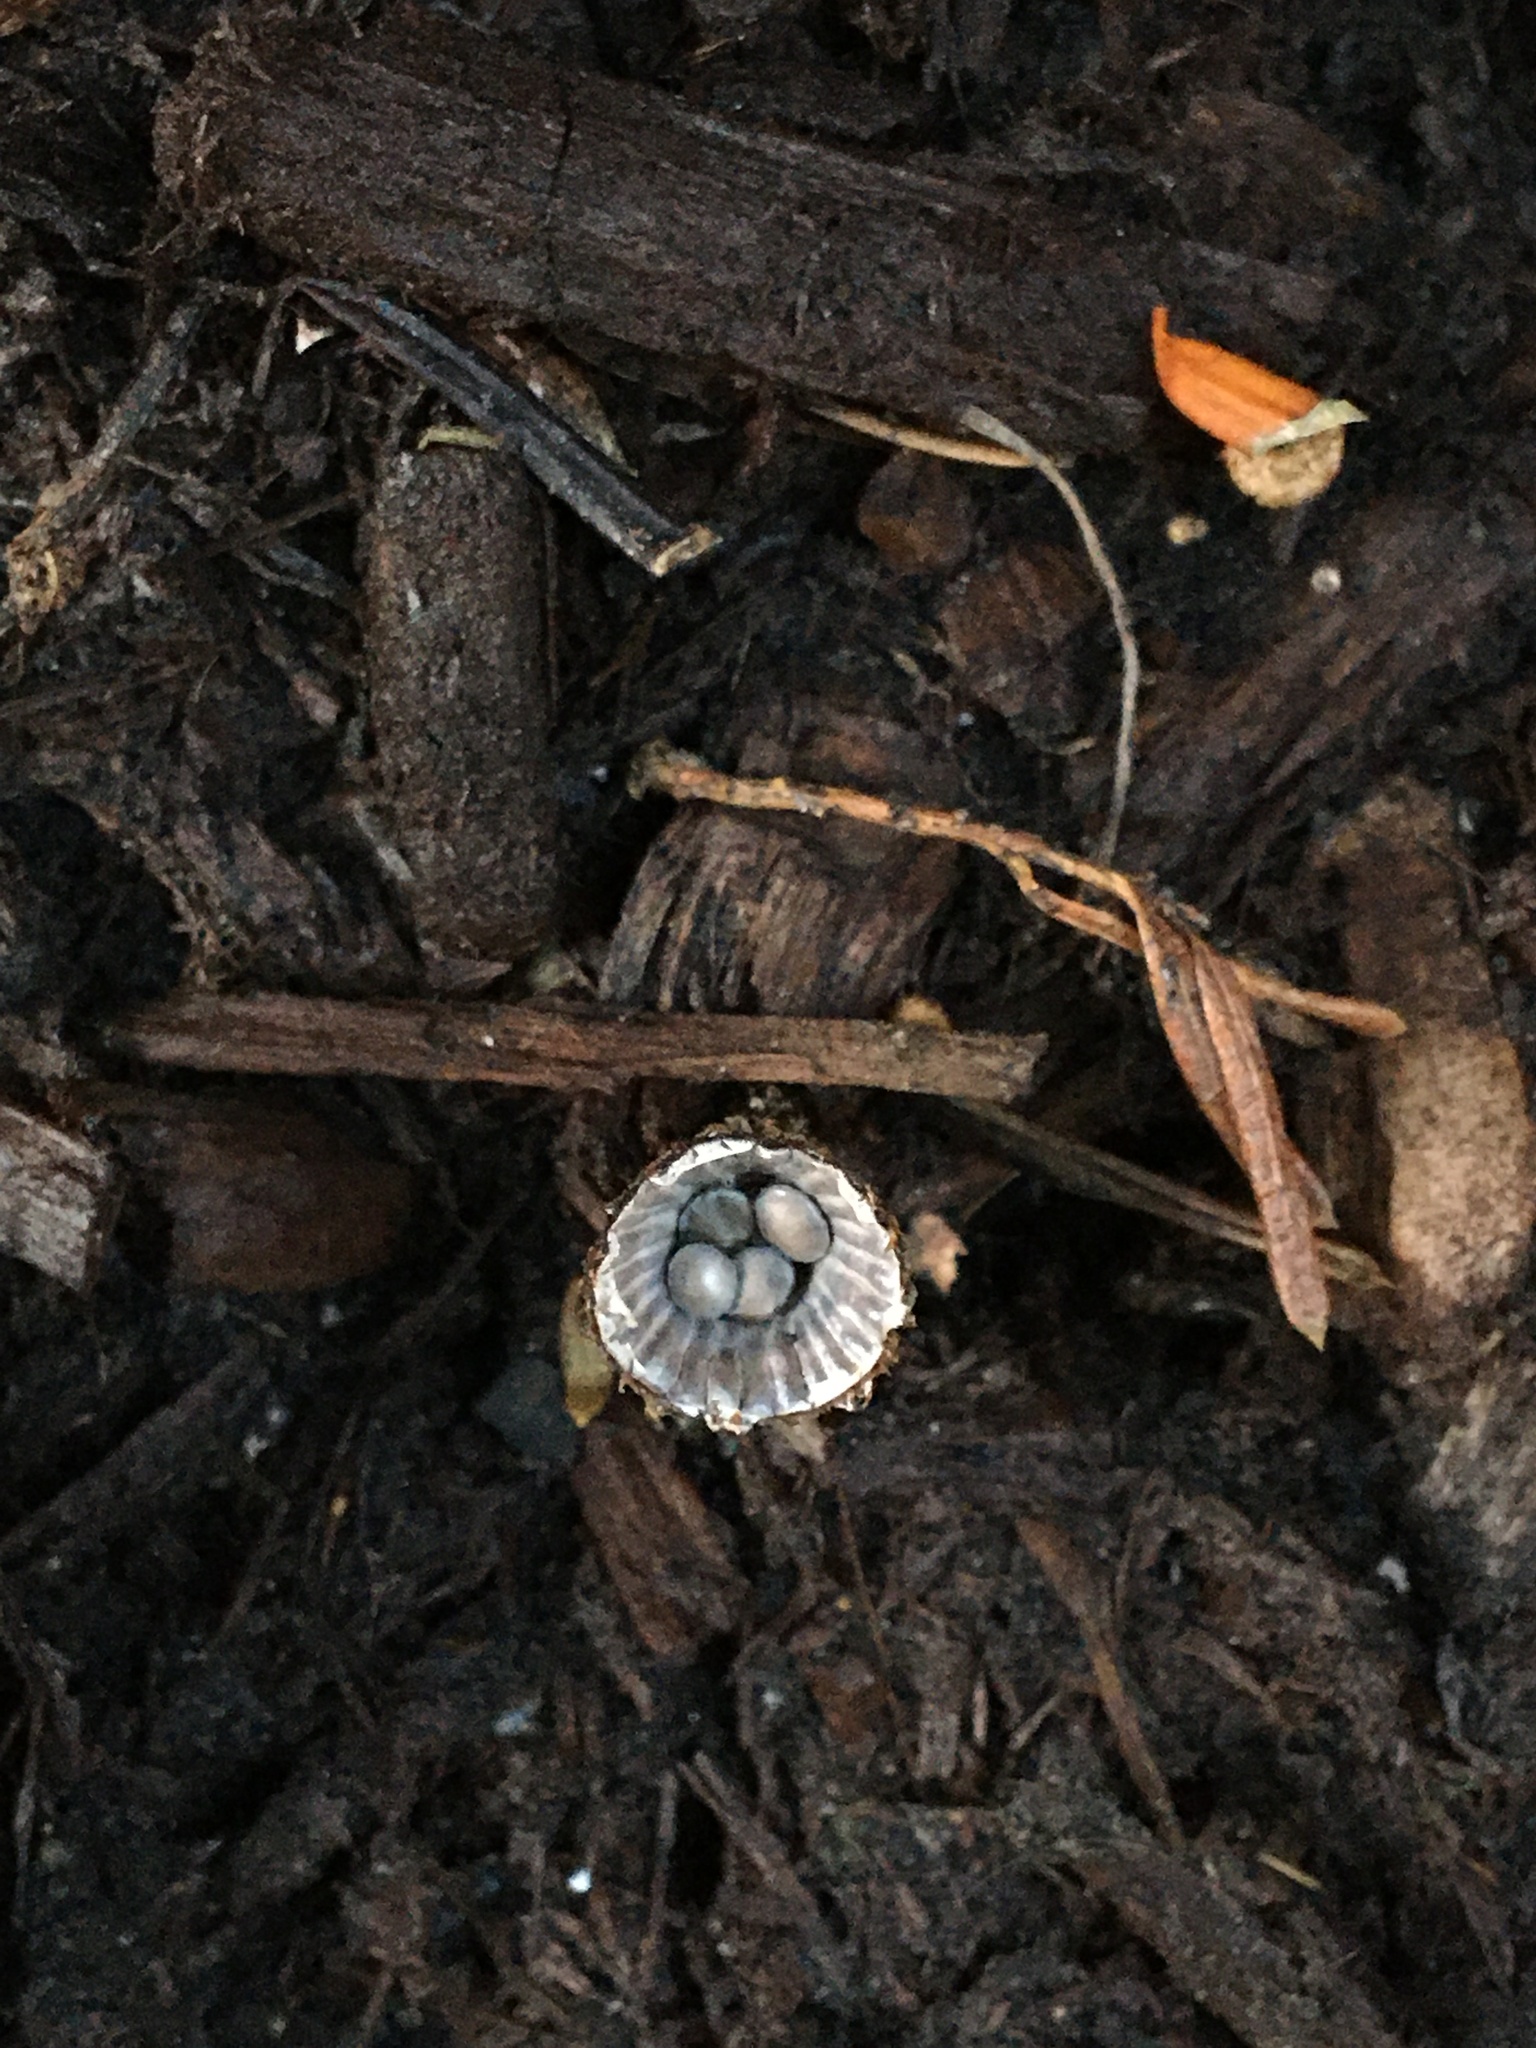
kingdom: Fungi
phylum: Basidiomycota
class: Agaricomycetes
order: Agaricales
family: Agaricaceae
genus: Cyathus
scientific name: Cyathus striatus
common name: Fluted bird's nest
